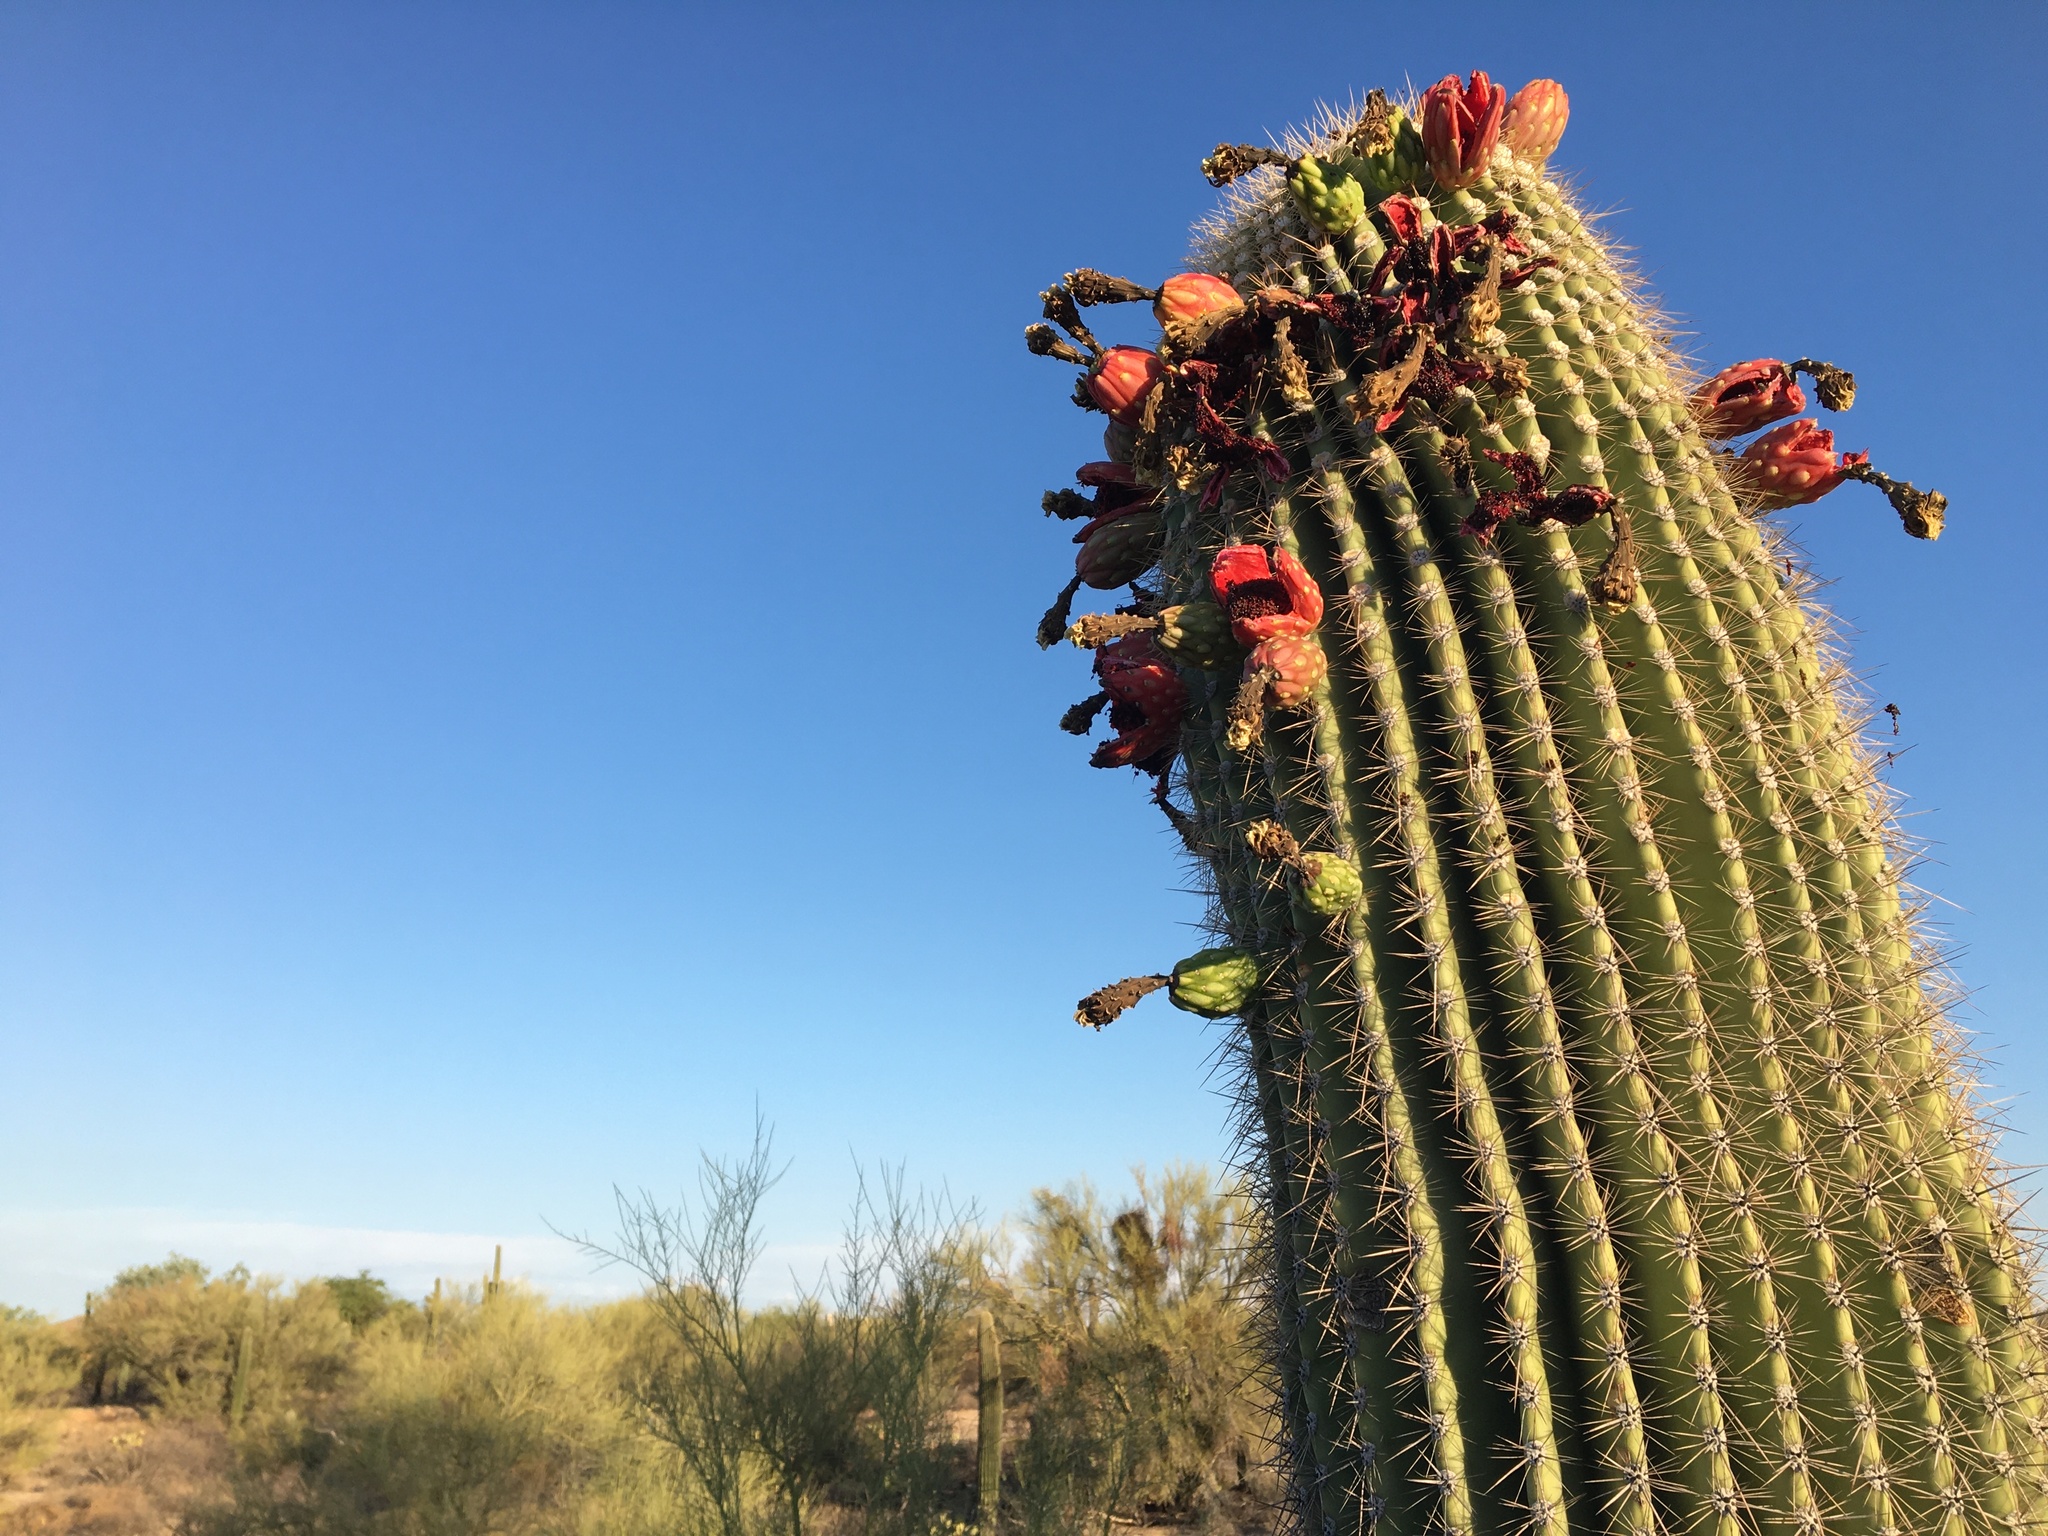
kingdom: Plantae
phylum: Tracheophyta
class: Magnoliopsida
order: Caryophyllales
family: Cactaceae
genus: Carnegiea
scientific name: Carnegiea gigantea
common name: Saguaro
